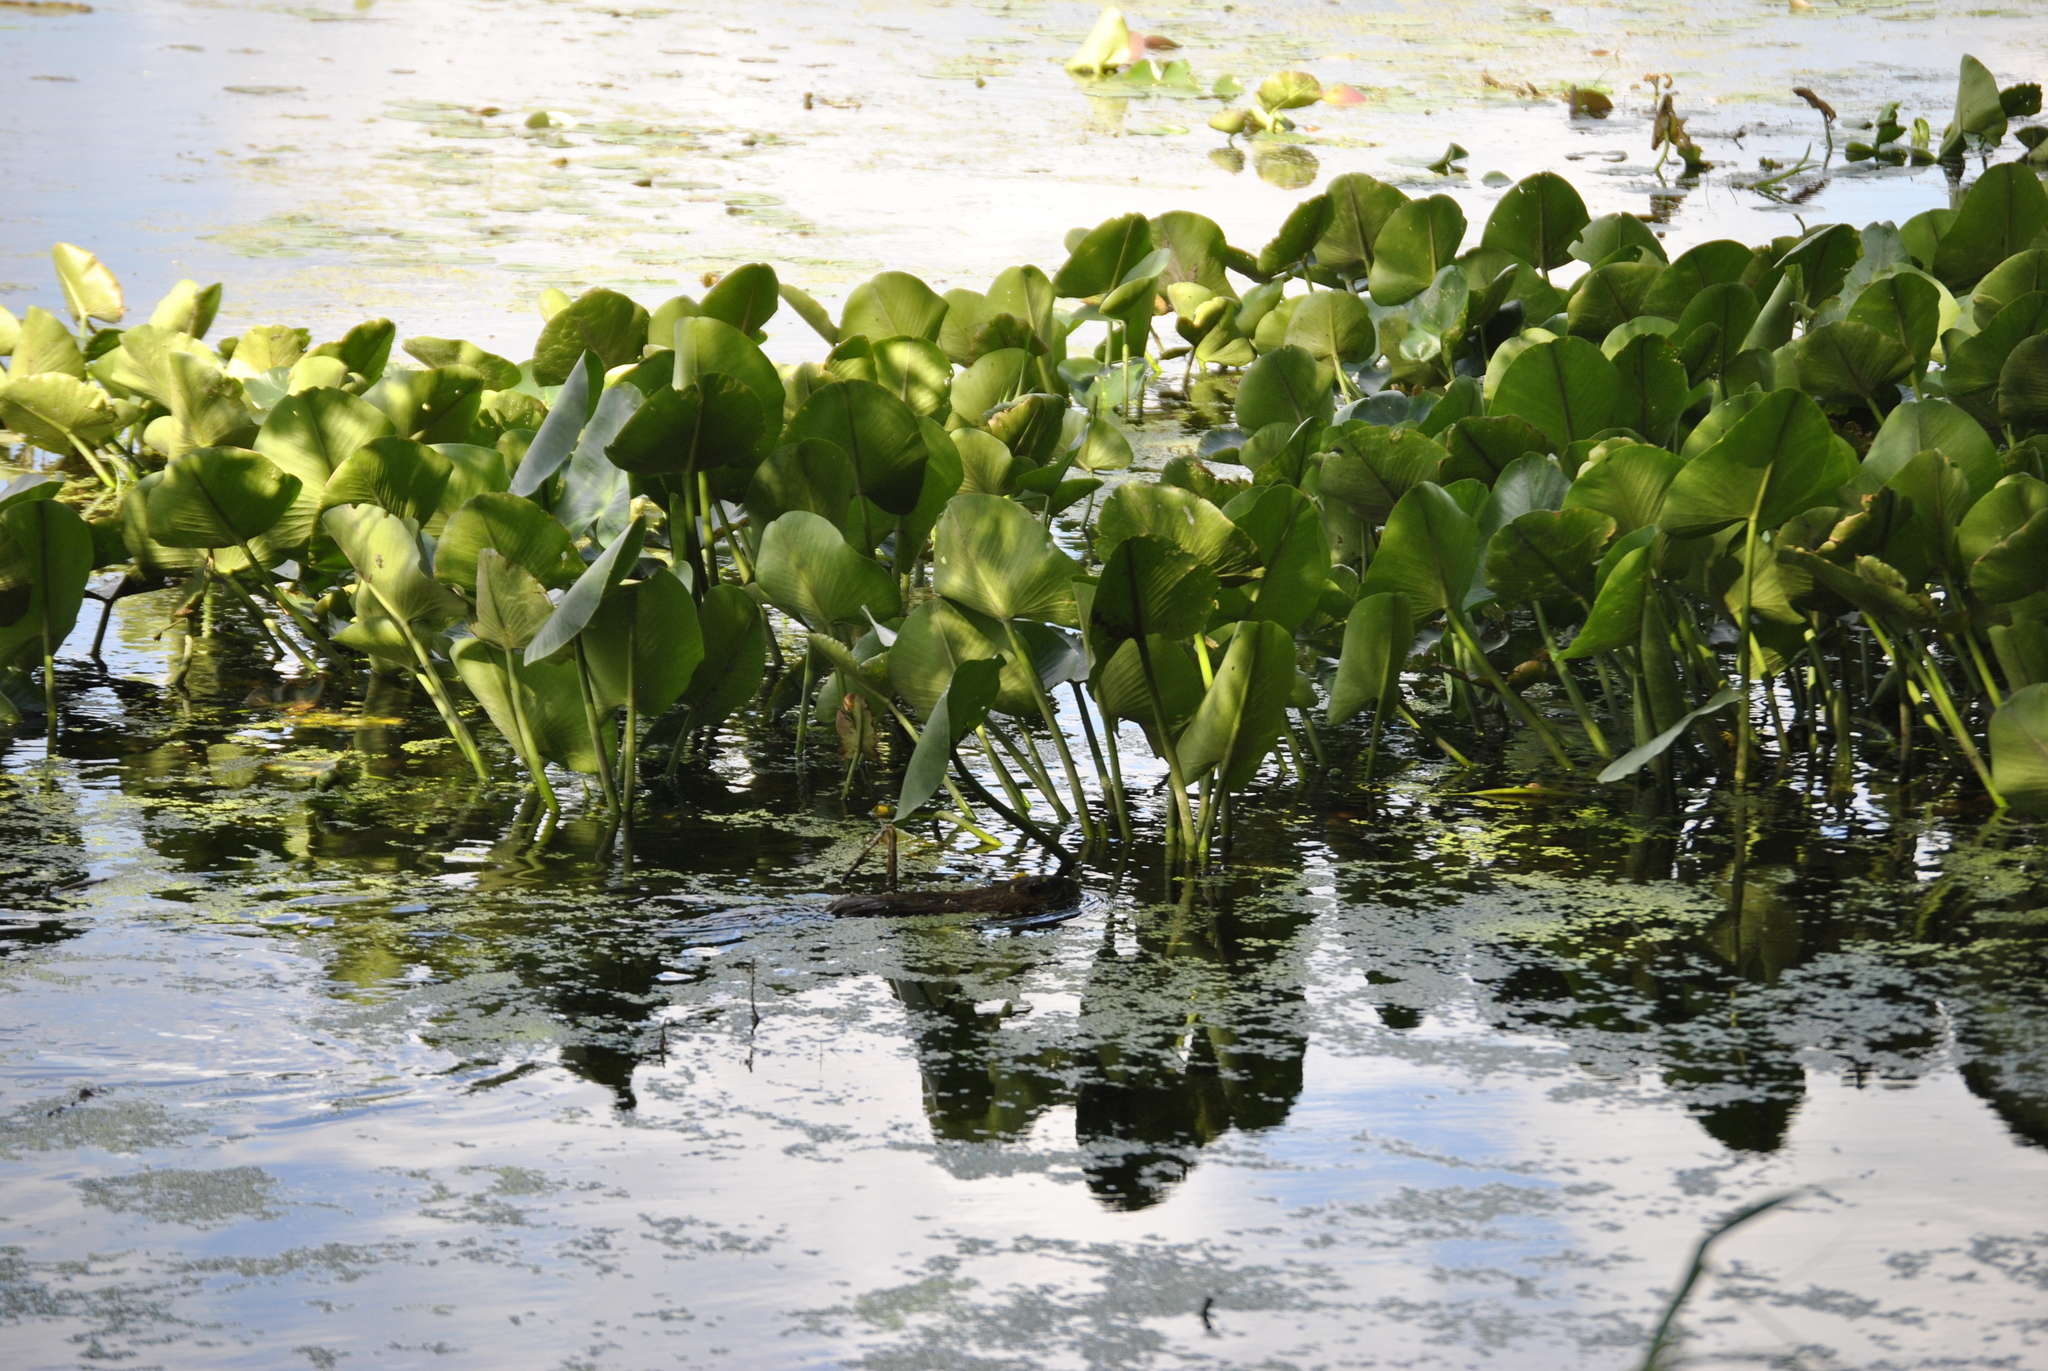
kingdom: Animalia
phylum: Chordata
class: Mammalia
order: Rodentia
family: Cricetidae
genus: Ondatra
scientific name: Ondatra zibethicus
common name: Muskrat
